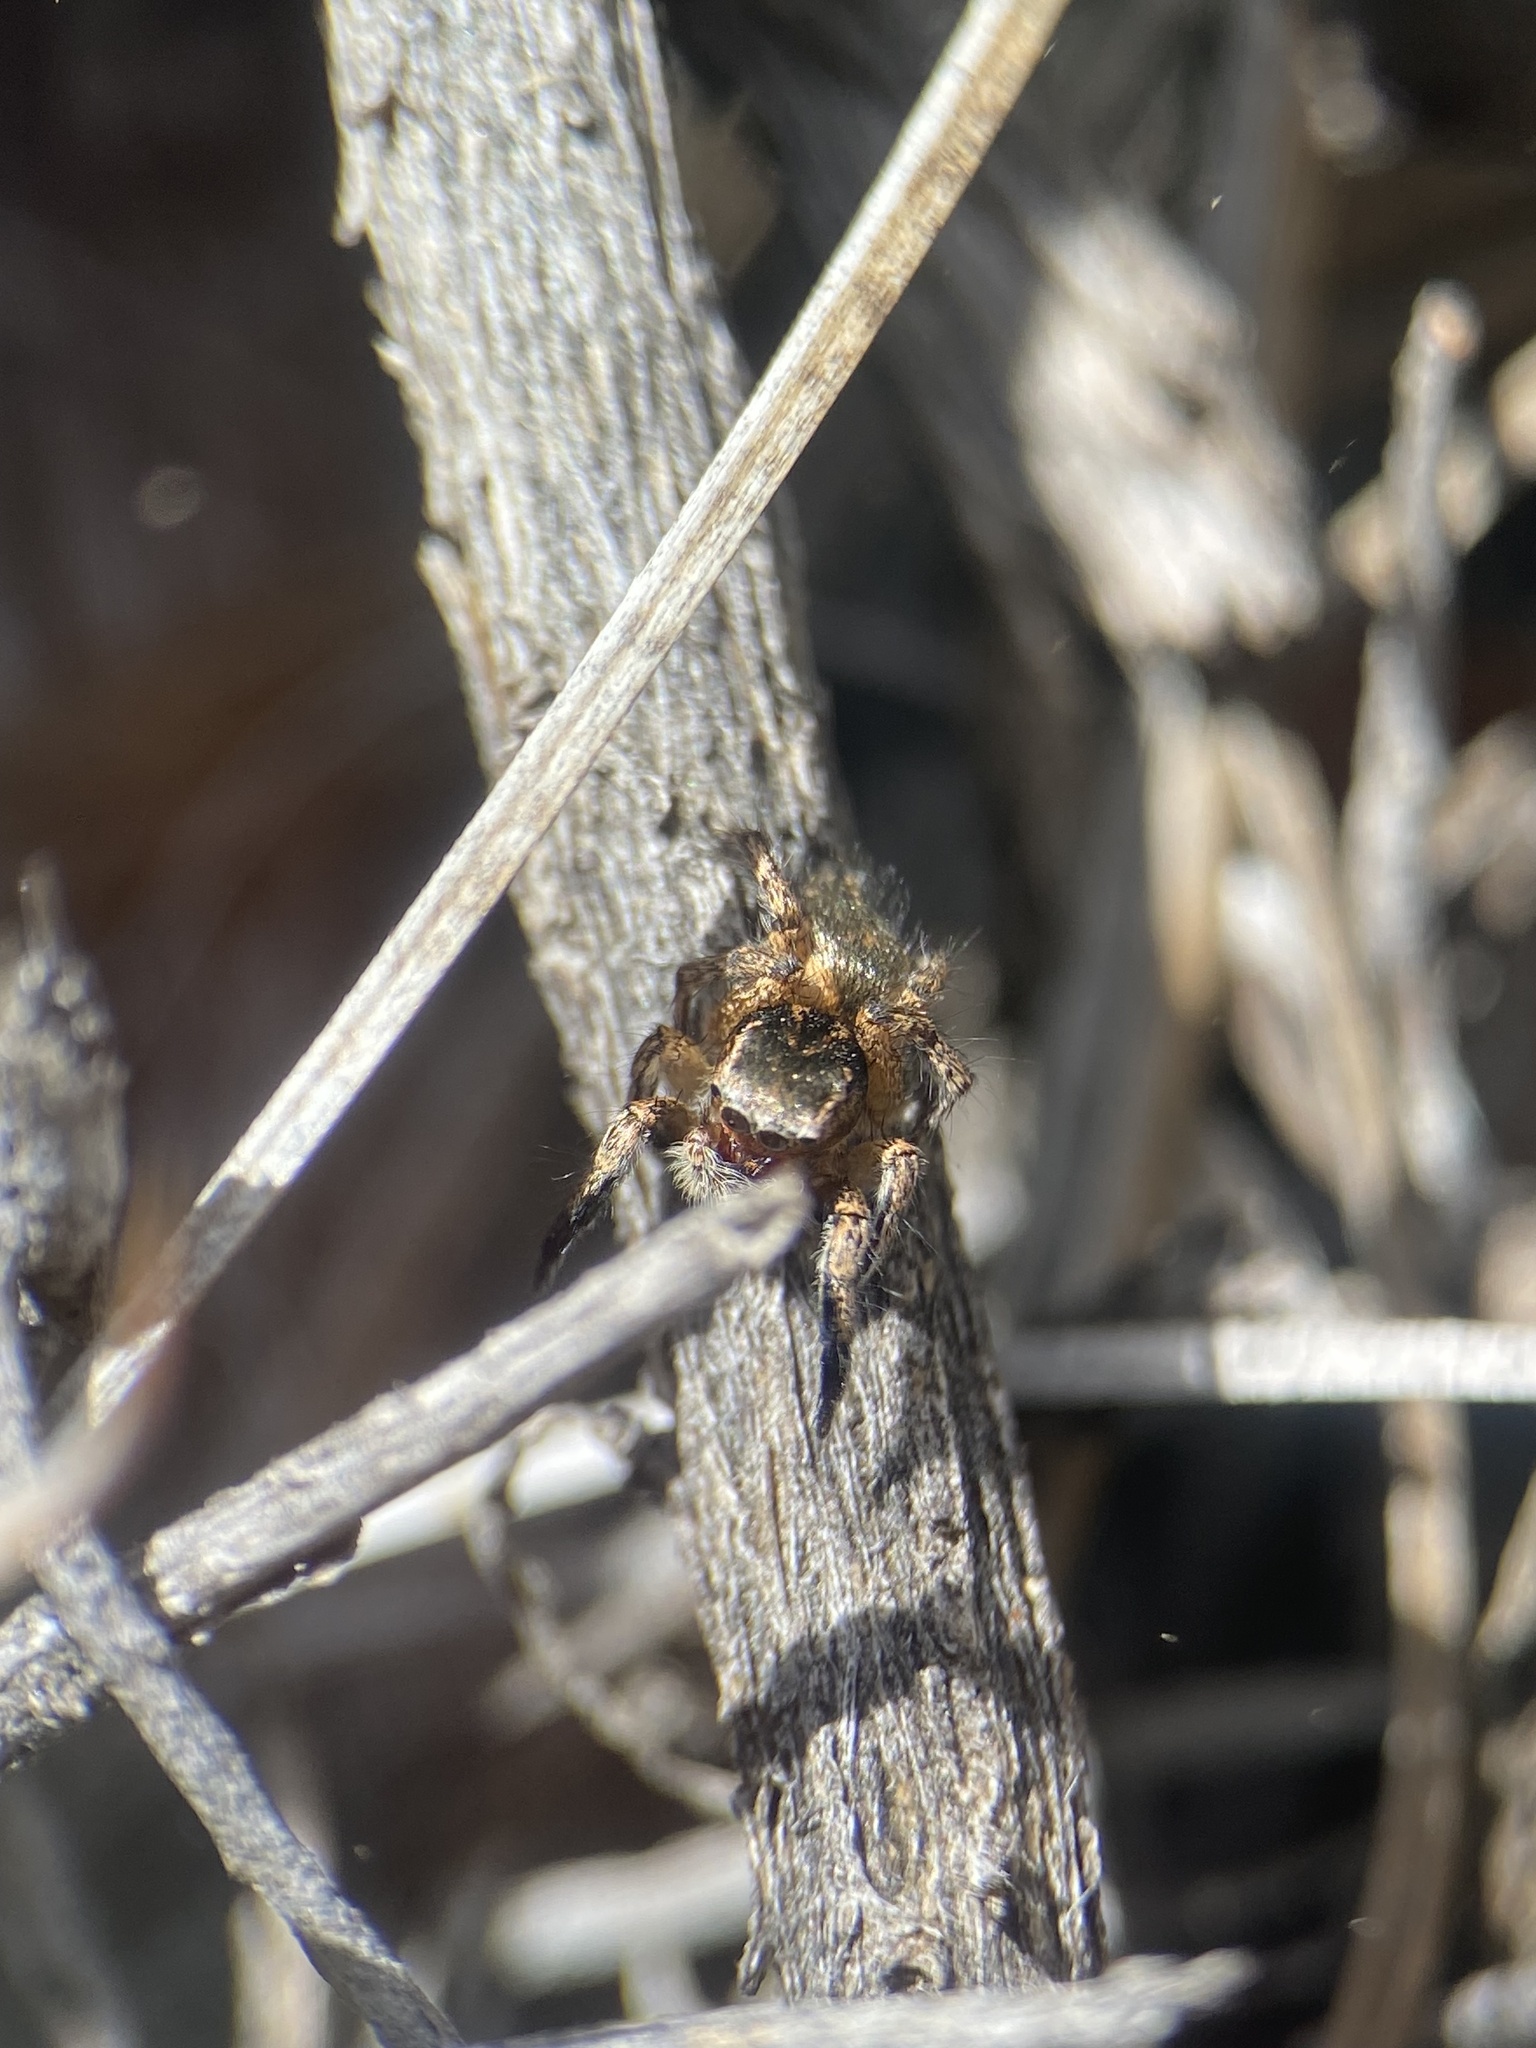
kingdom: Animalia
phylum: Arthropoda
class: Arachnida
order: Araneae
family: Salticidae
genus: Habronattus
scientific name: Habronattus hirsutus
